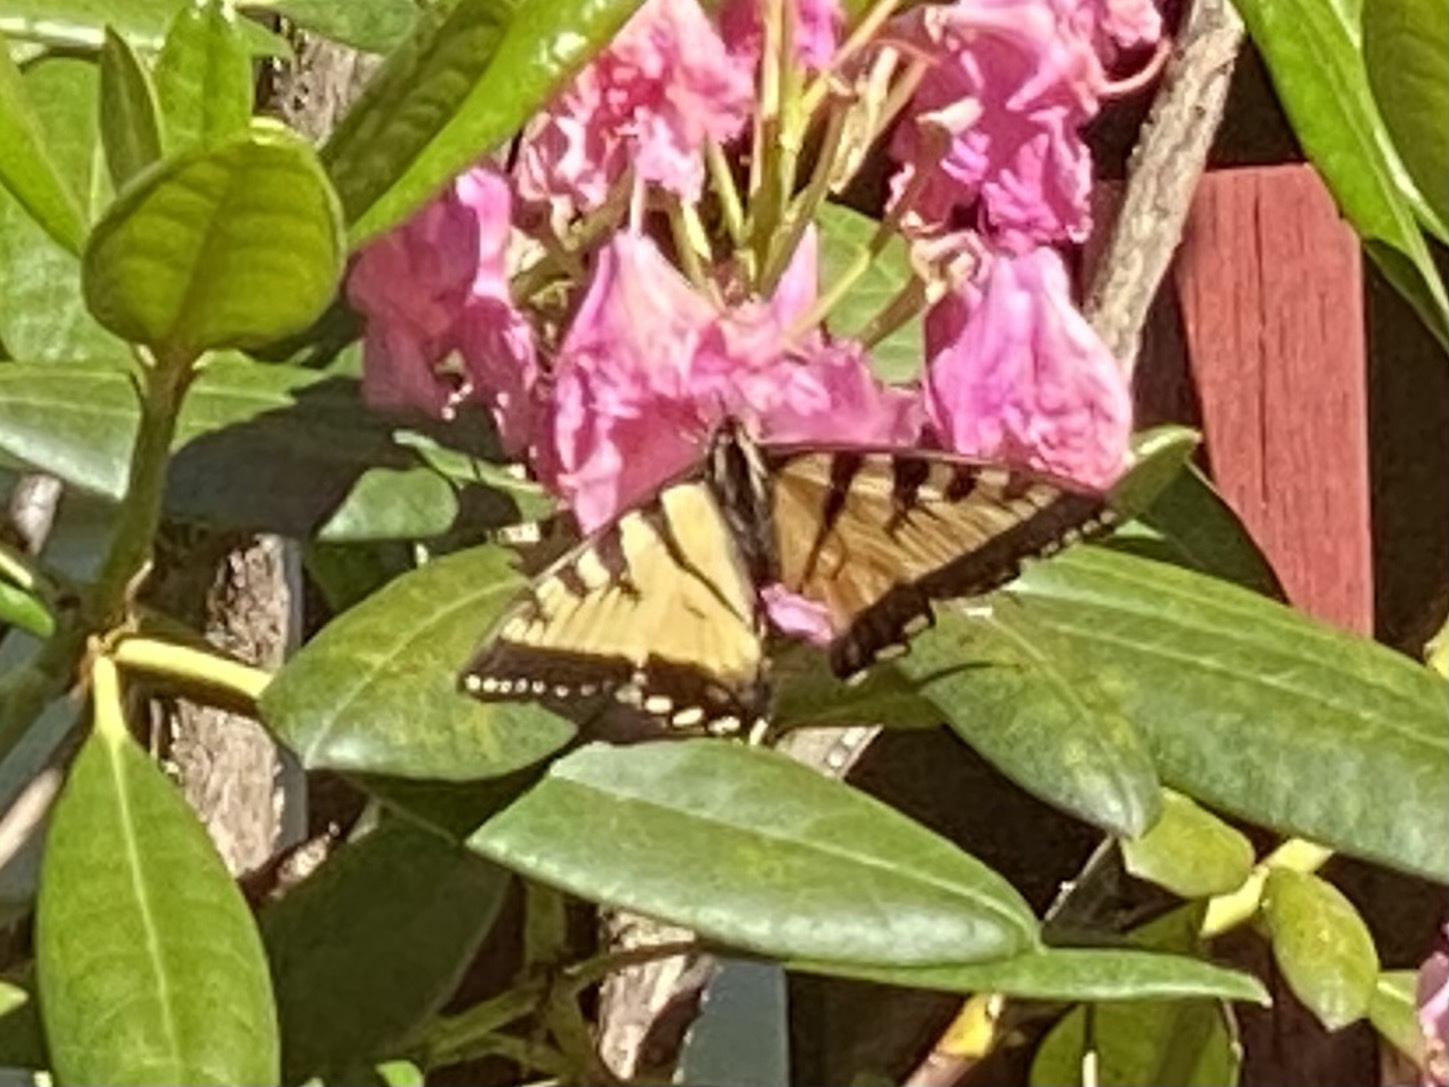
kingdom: Animalia
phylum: Arthropoda
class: Insecta
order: Lepidoptera
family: Papilionidae
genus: Papilio
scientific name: Papilio canadensis
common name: Canadian tiger swallowtail
